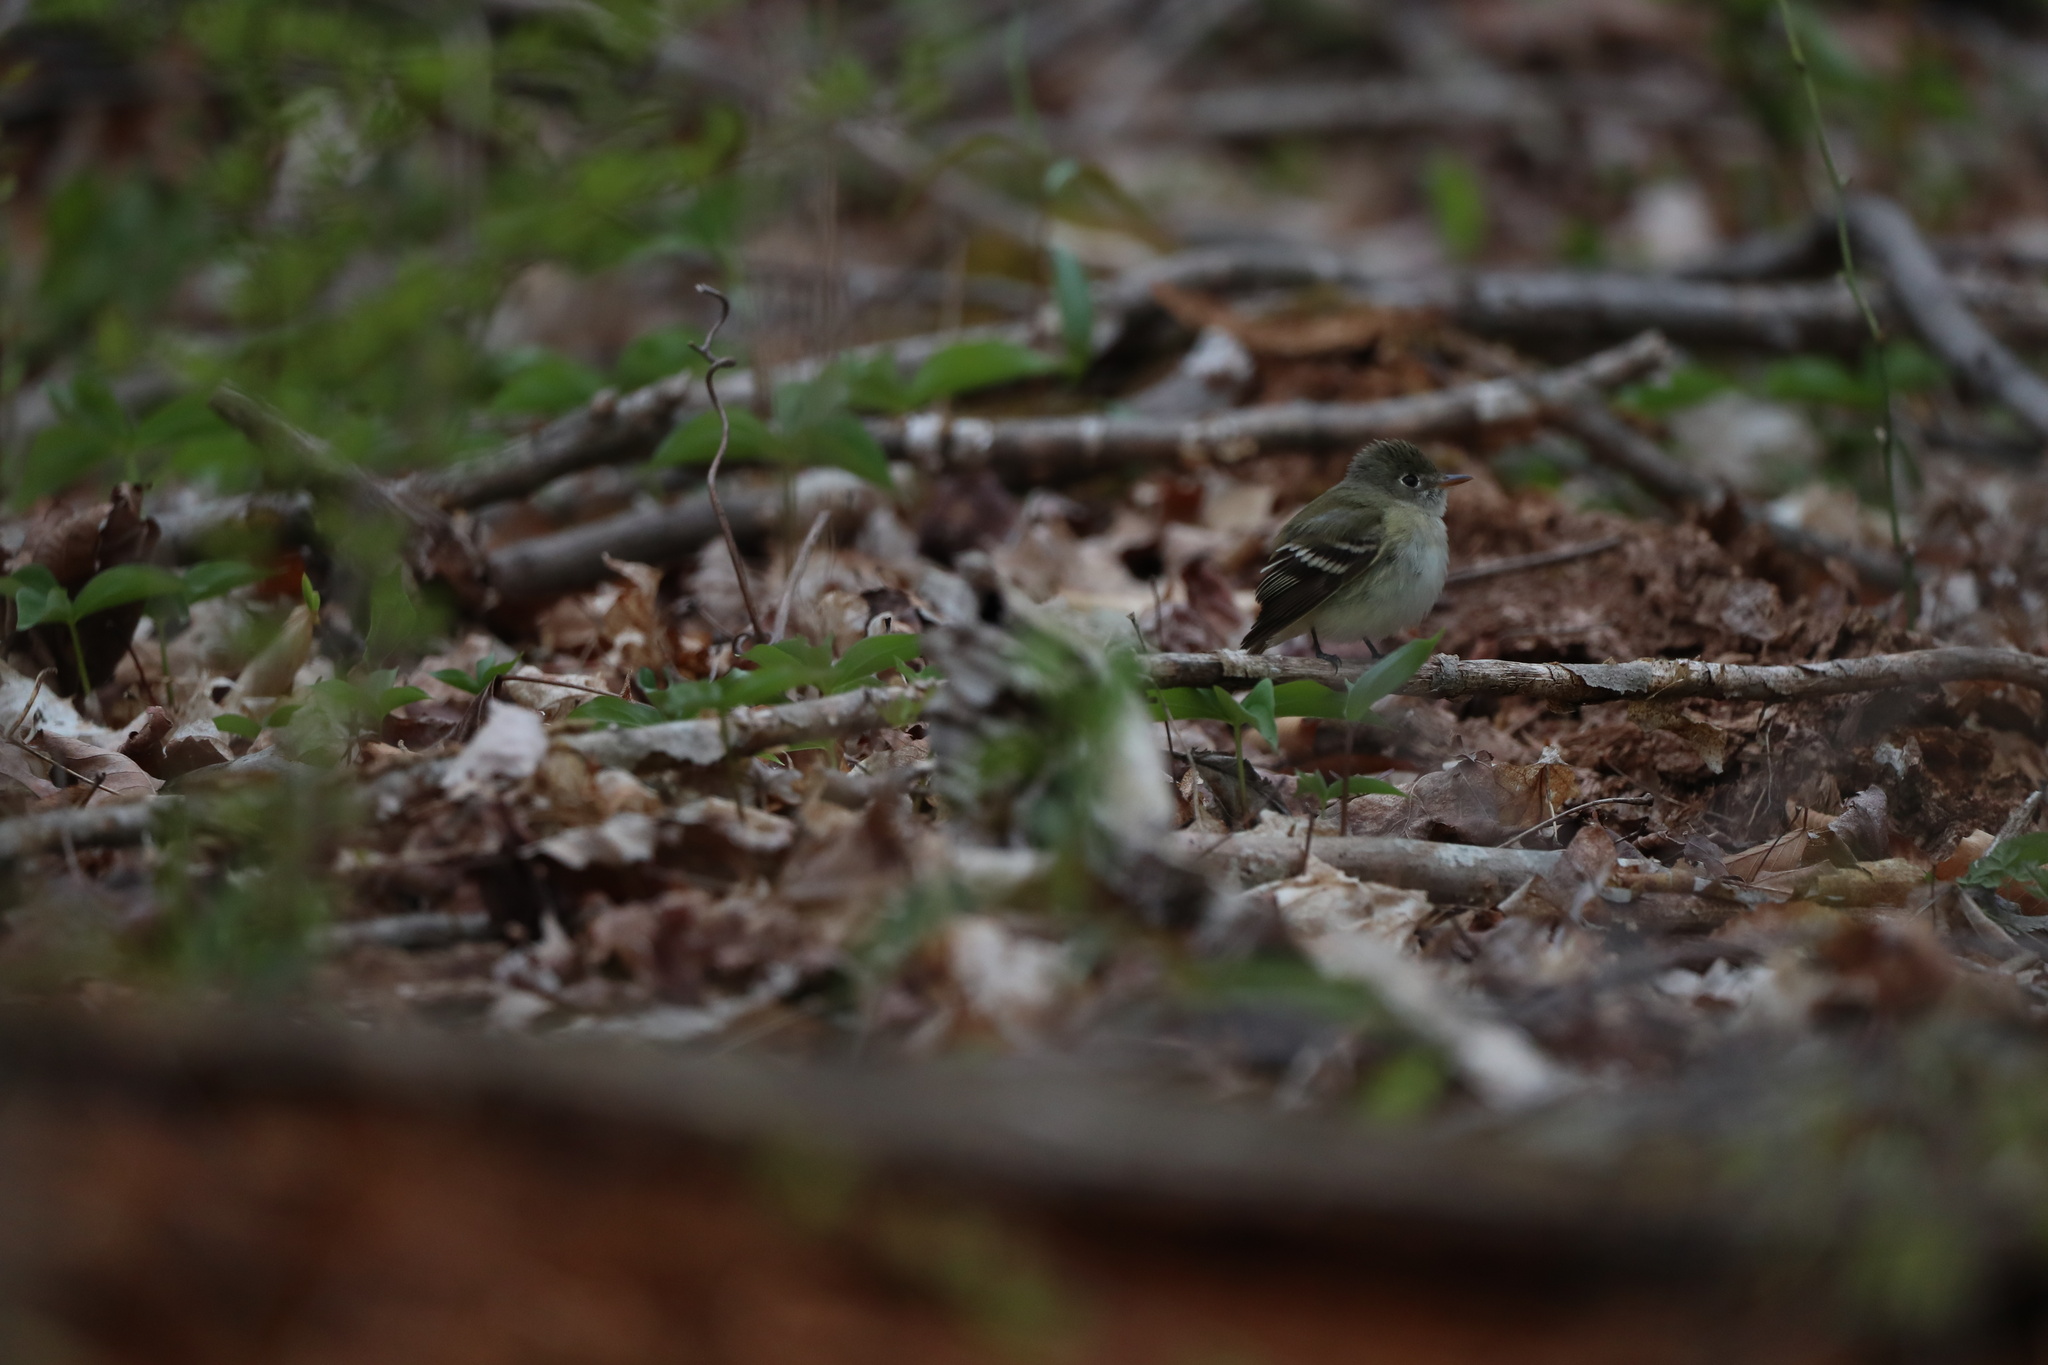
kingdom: Animalia
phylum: Chordata
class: Aves
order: Passeriformes
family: Tyrannidae
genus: Empidonax
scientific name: Empidonax minimus
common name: Least flycatcher
